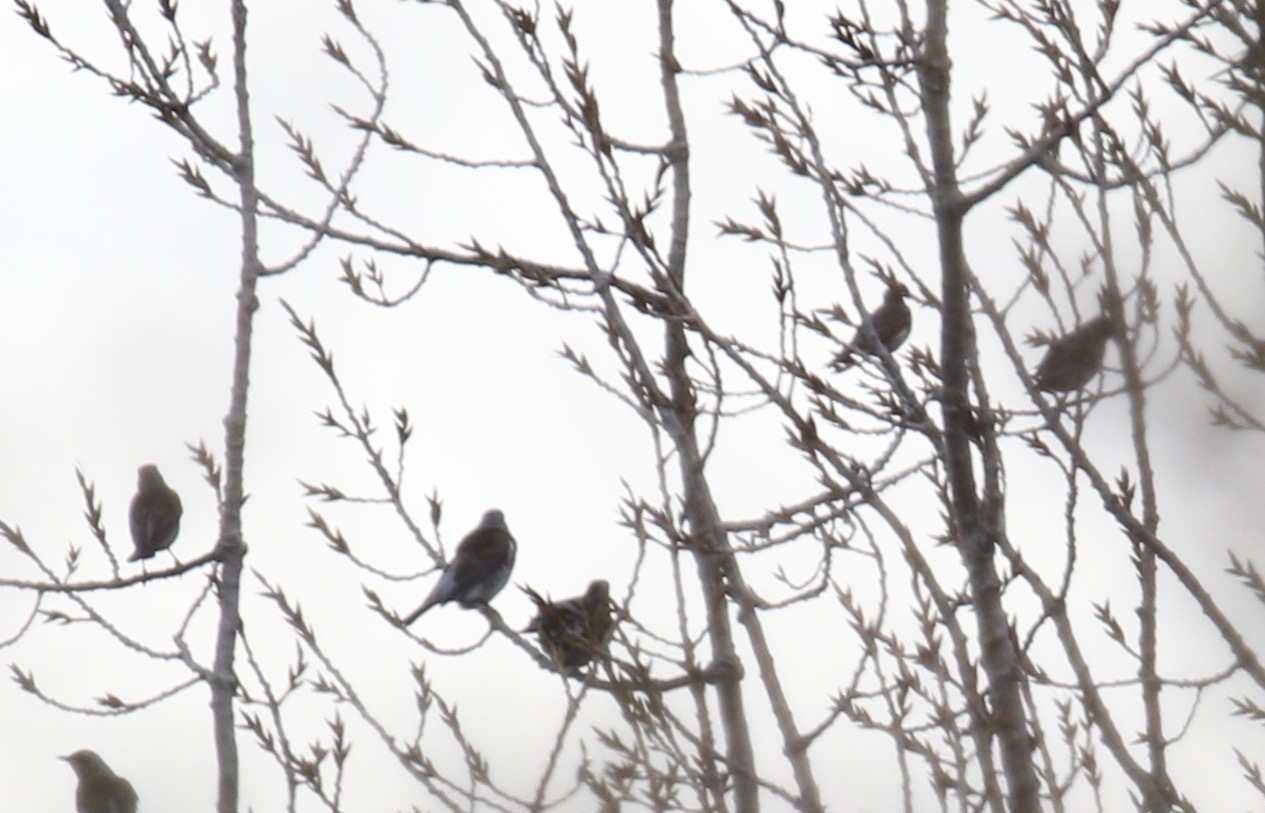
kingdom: Animalia
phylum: Chordata
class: Aves
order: Passeriformes
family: Turdidae
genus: Turdus
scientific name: Turdus pilaris
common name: Fieldfare
